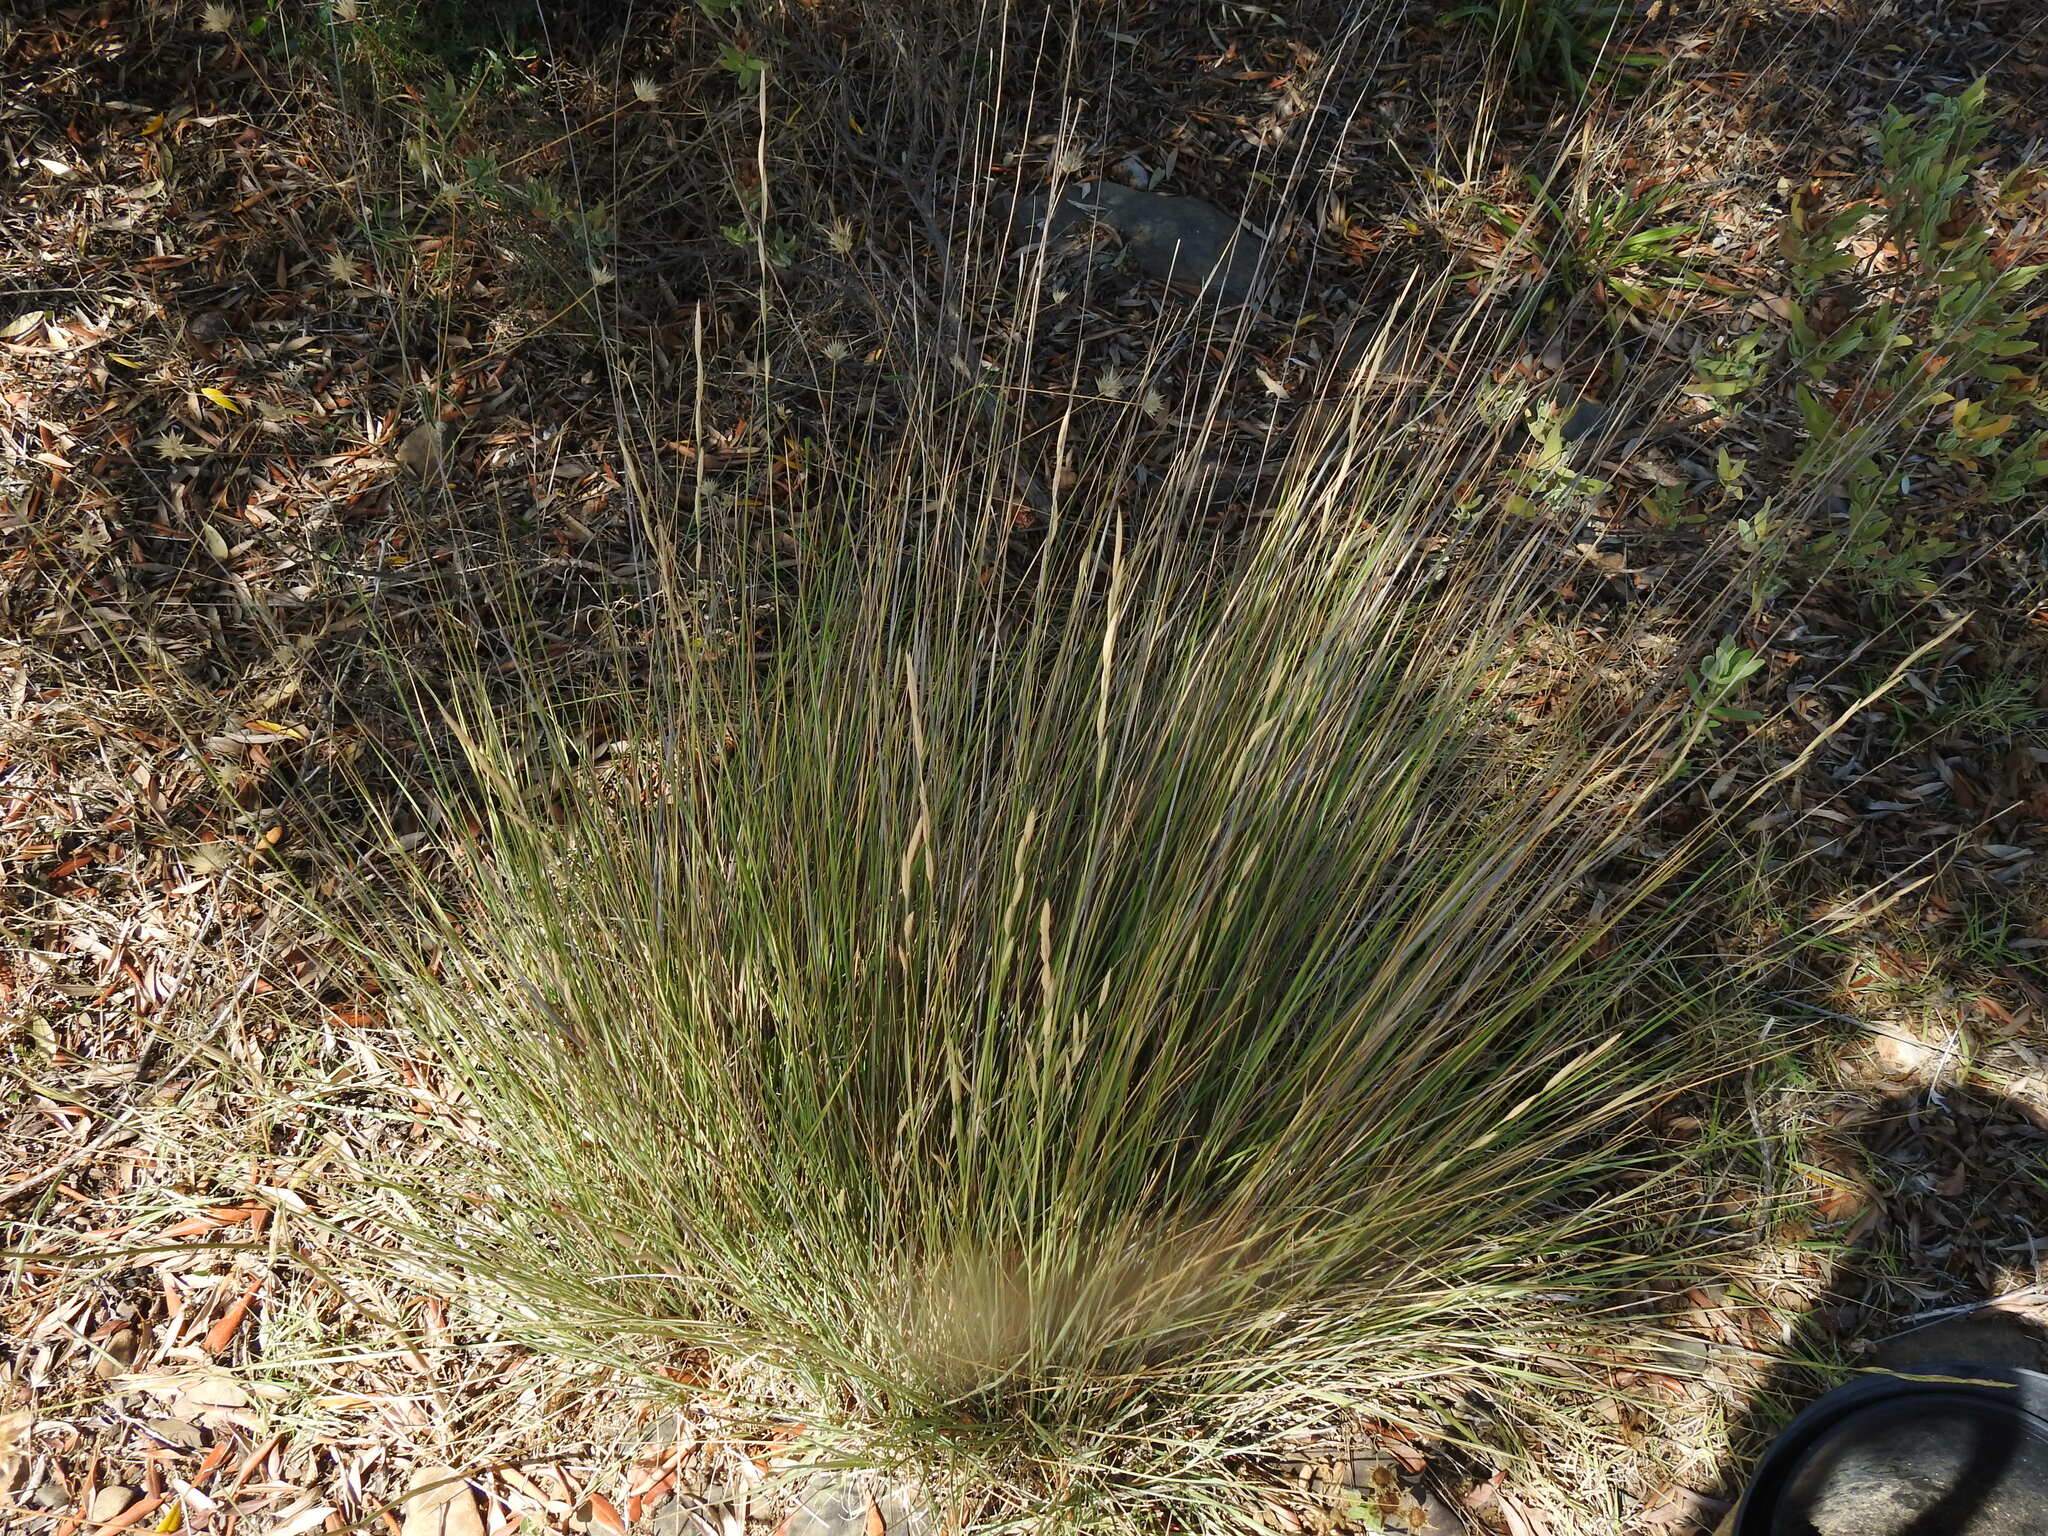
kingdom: Plantae
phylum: Tracheophyta
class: Liliopsida
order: Poales
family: Poaceae
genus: Brachypodium
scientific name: Brachypodium phoenicoides
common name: Thinleaf false brome
